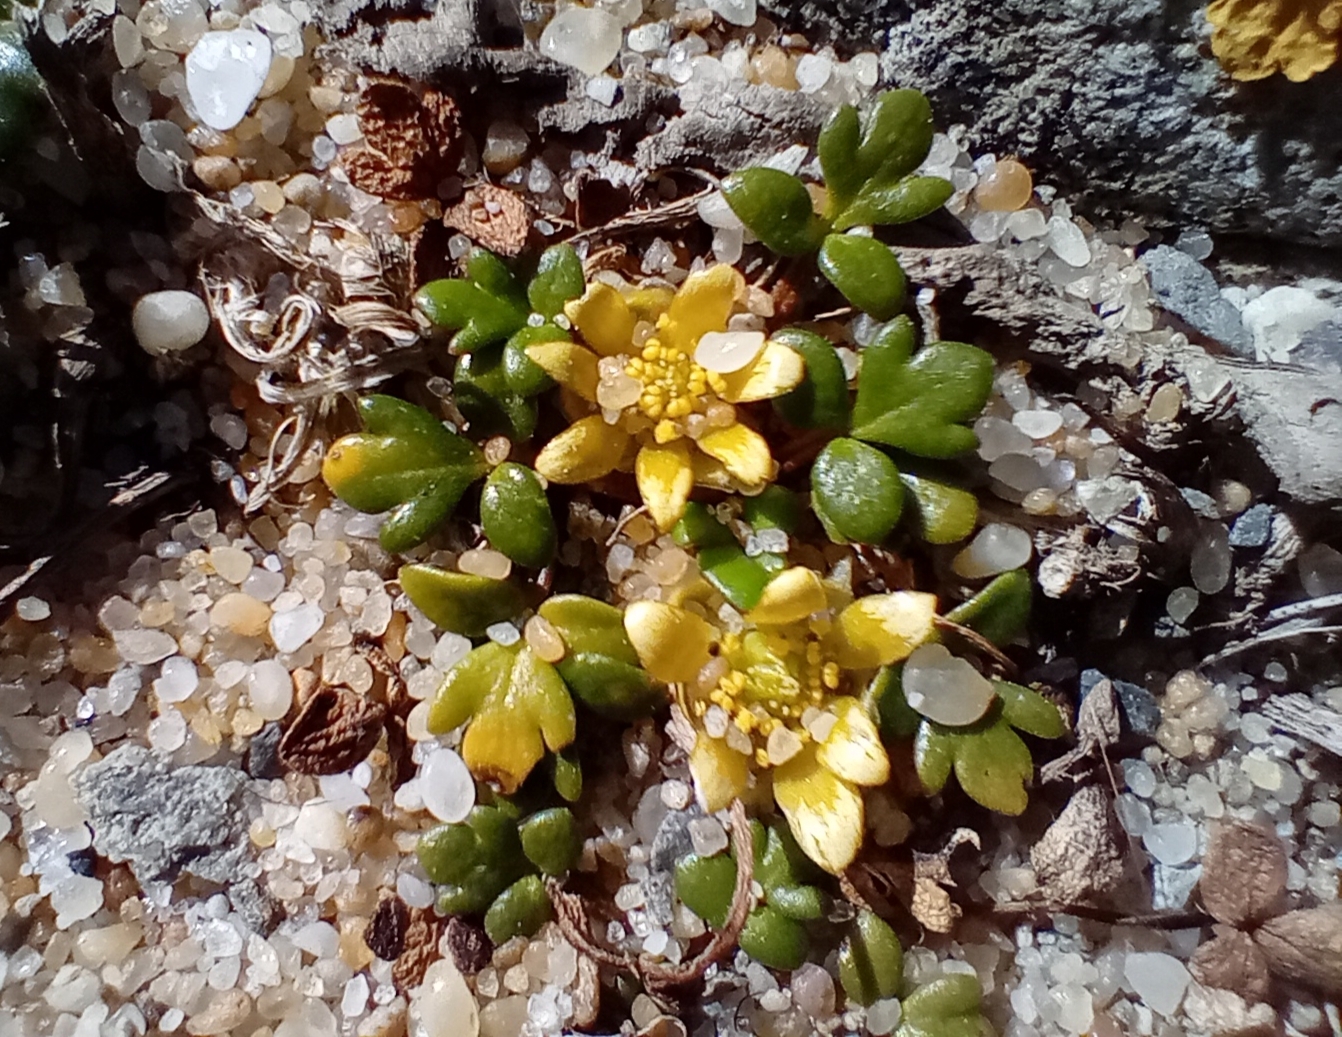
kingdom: Plantae
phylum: Tracheophyta
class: Magnoliopsida
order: Ranunculales
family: Ranunculaceae
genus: Ranunculus
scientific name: Ranunculus acaulis
